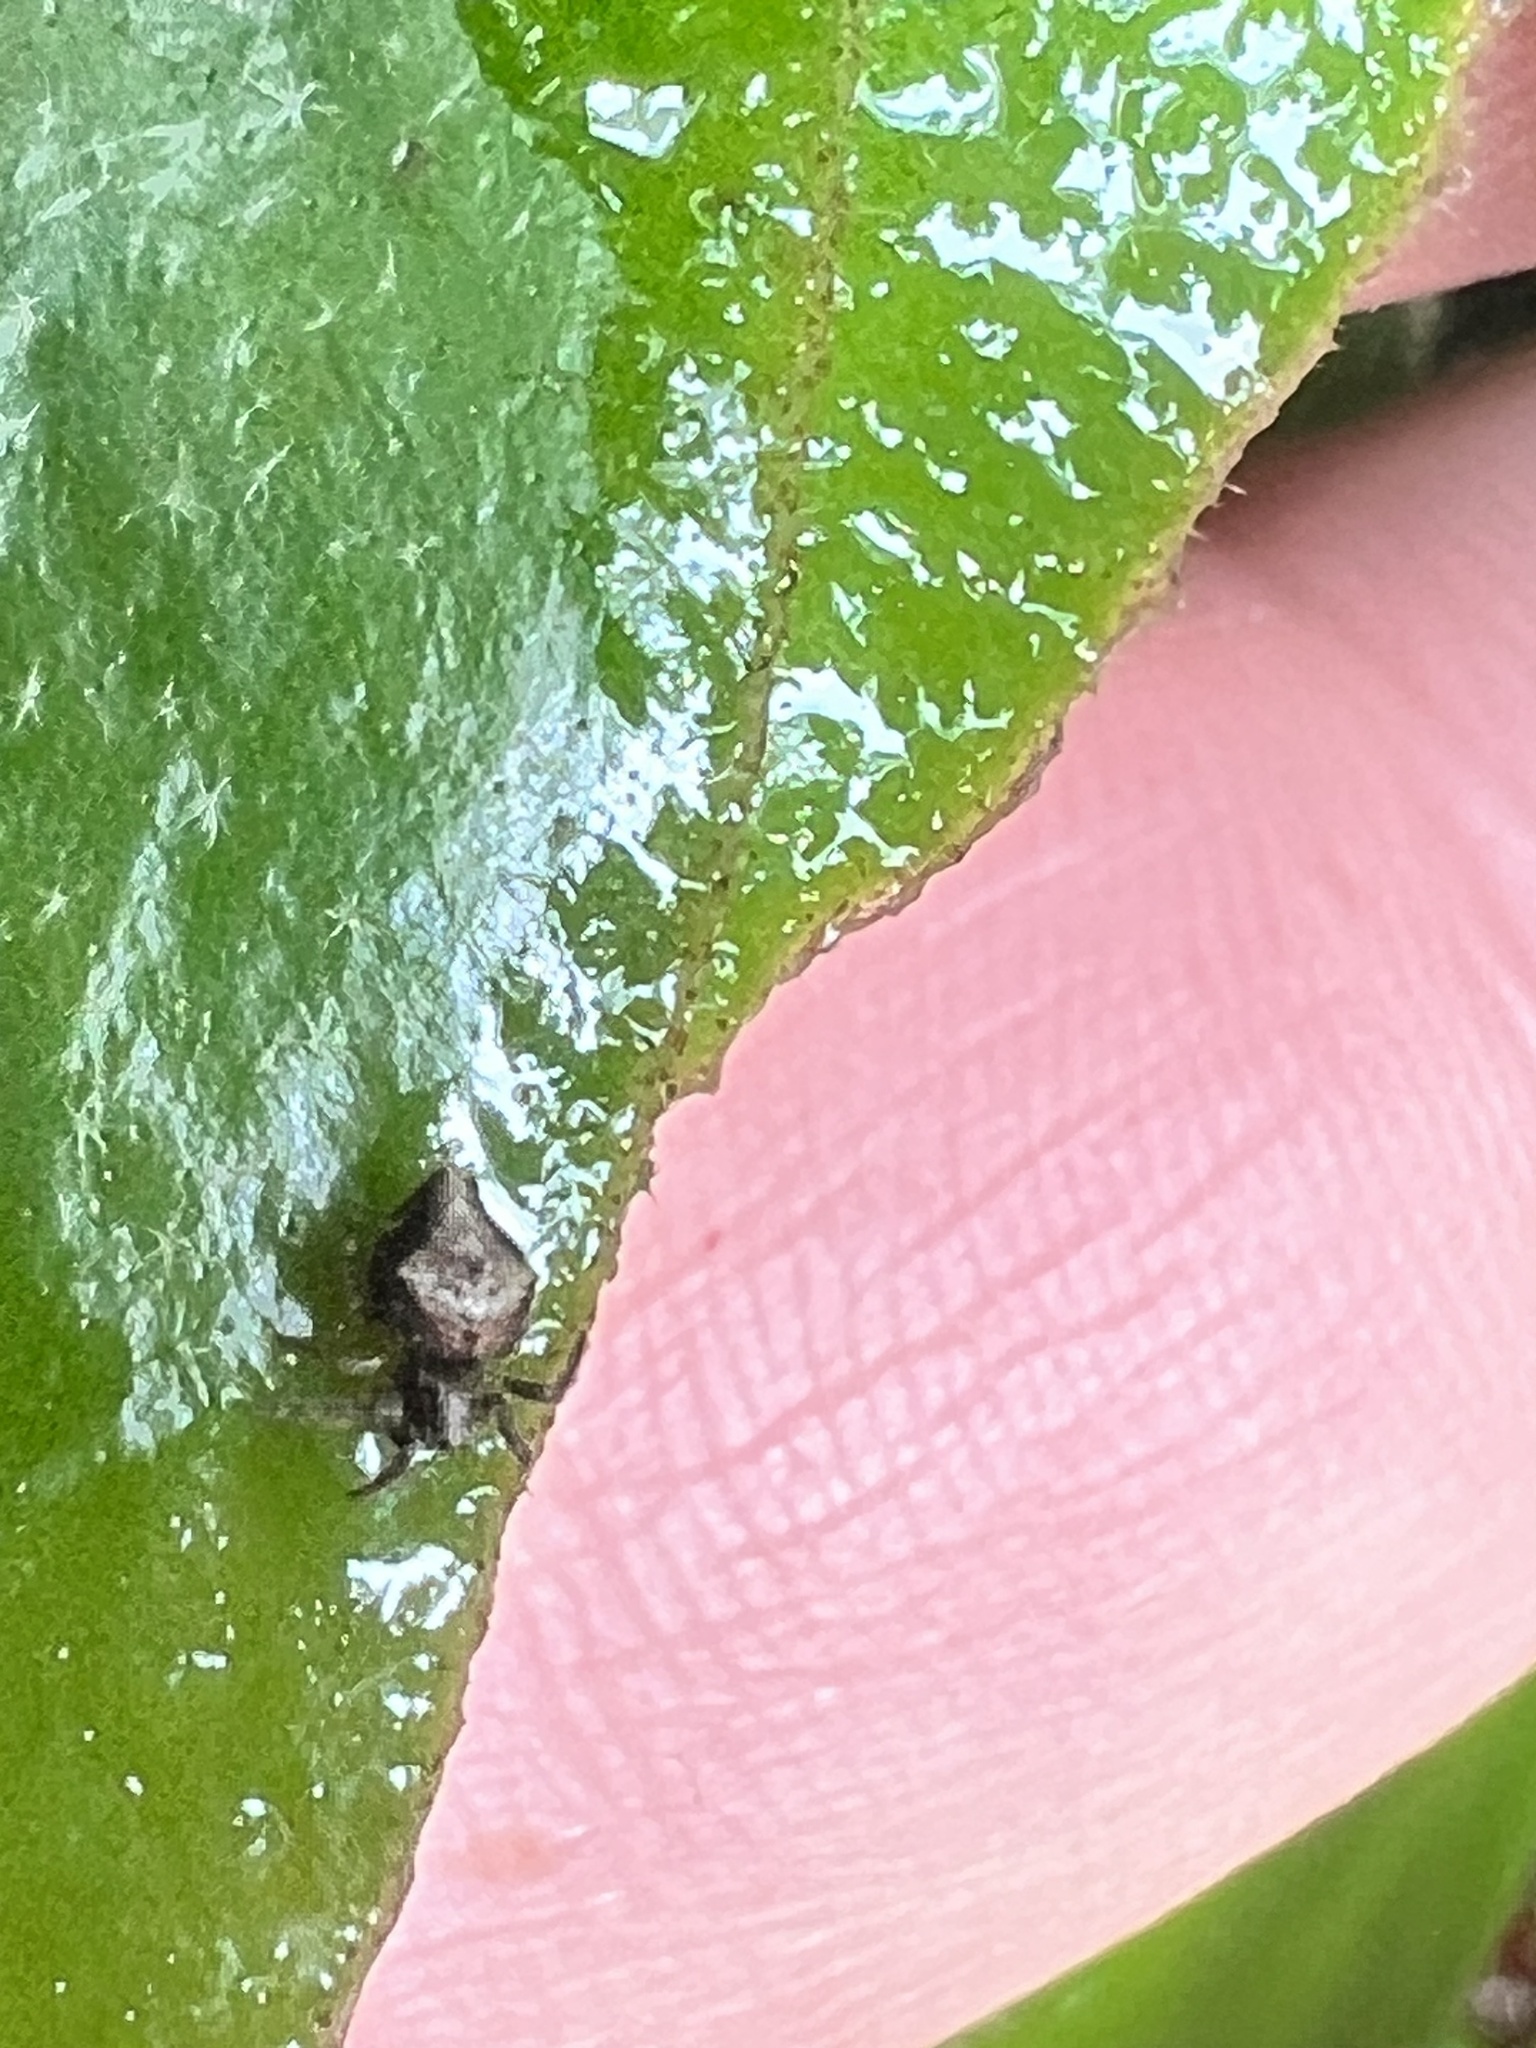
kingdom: Animalia
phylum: Arthropoda
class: Arachnida
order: Araneae
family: Araneidae
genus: Eriophora
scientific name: Eriophora pustulosa
